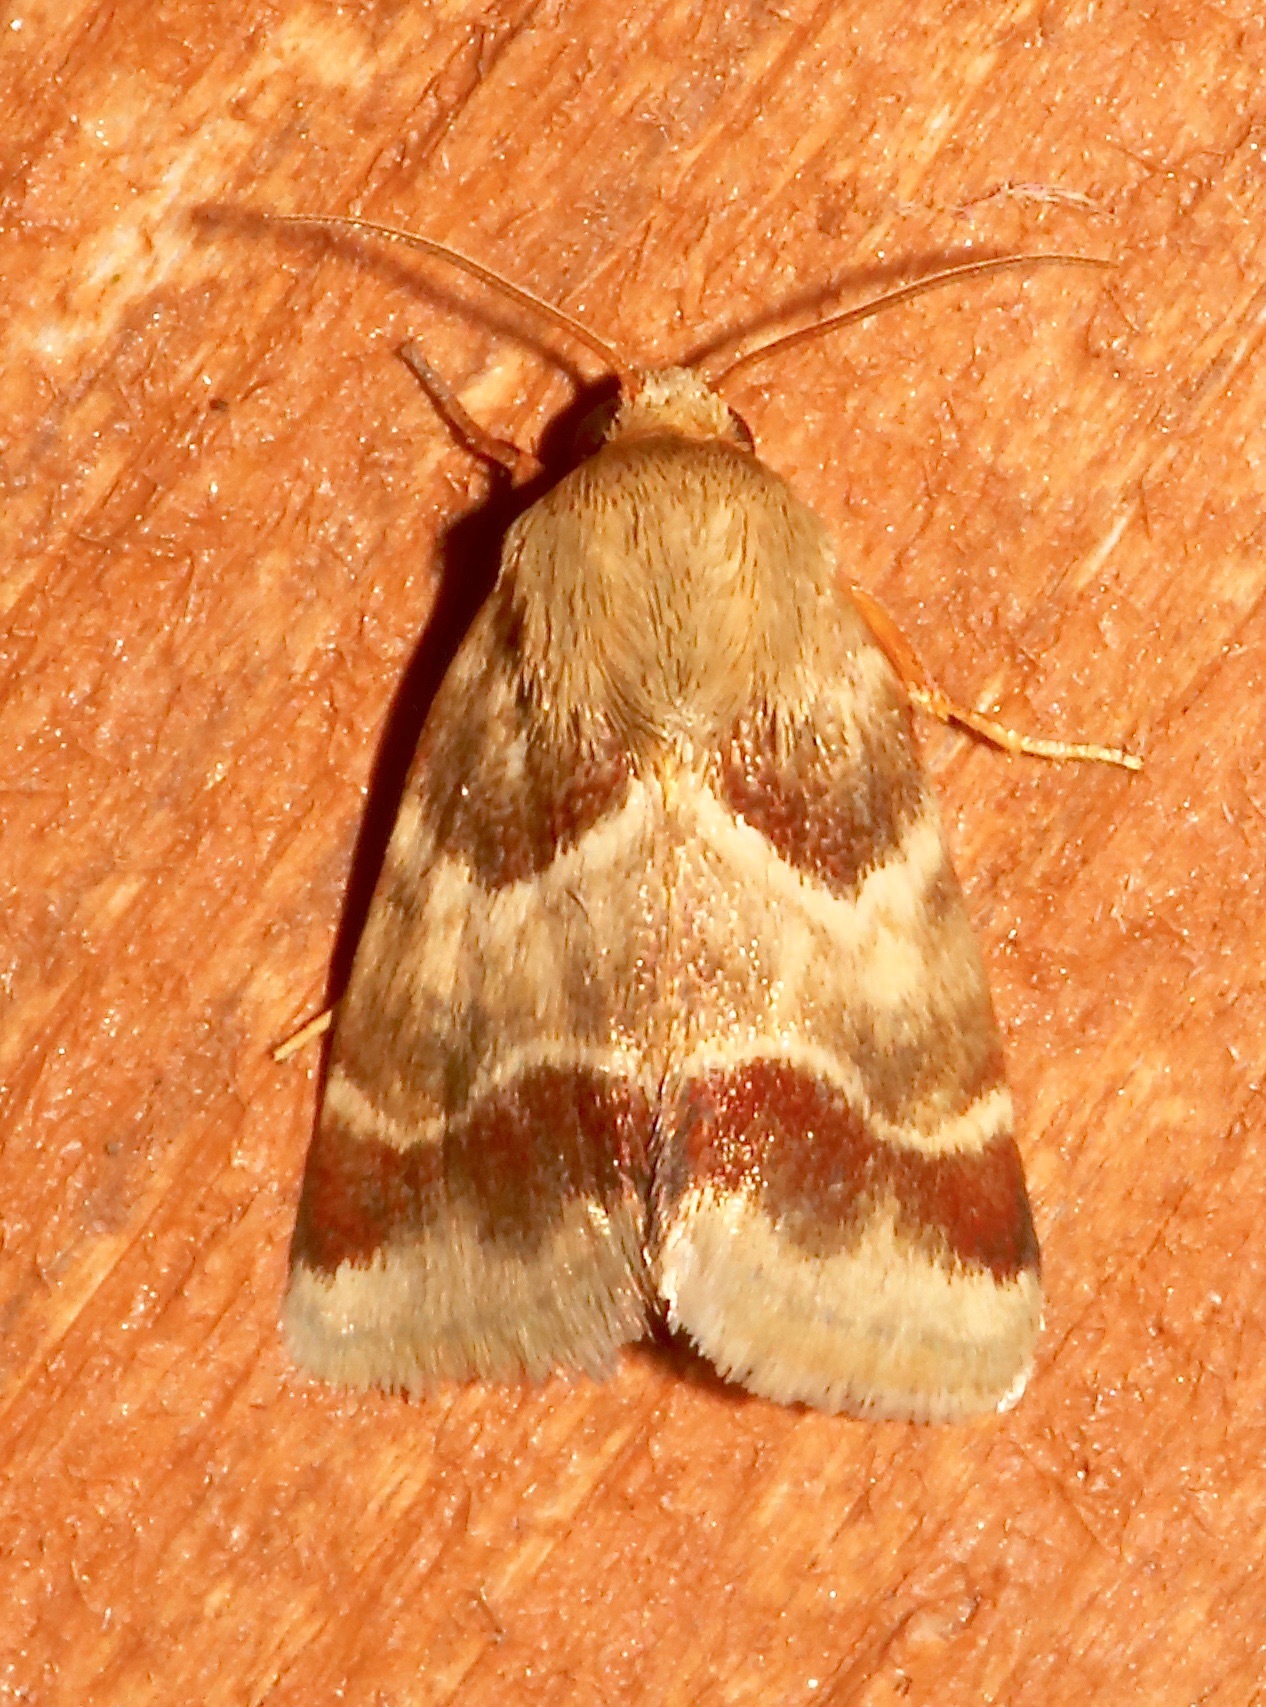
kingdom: Animalia
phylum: Arthropoda
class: Insecta
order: Lepidoptera
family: Noctuidae
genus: Schinia
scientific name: Schinia lynx
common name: Lynx flower moth
